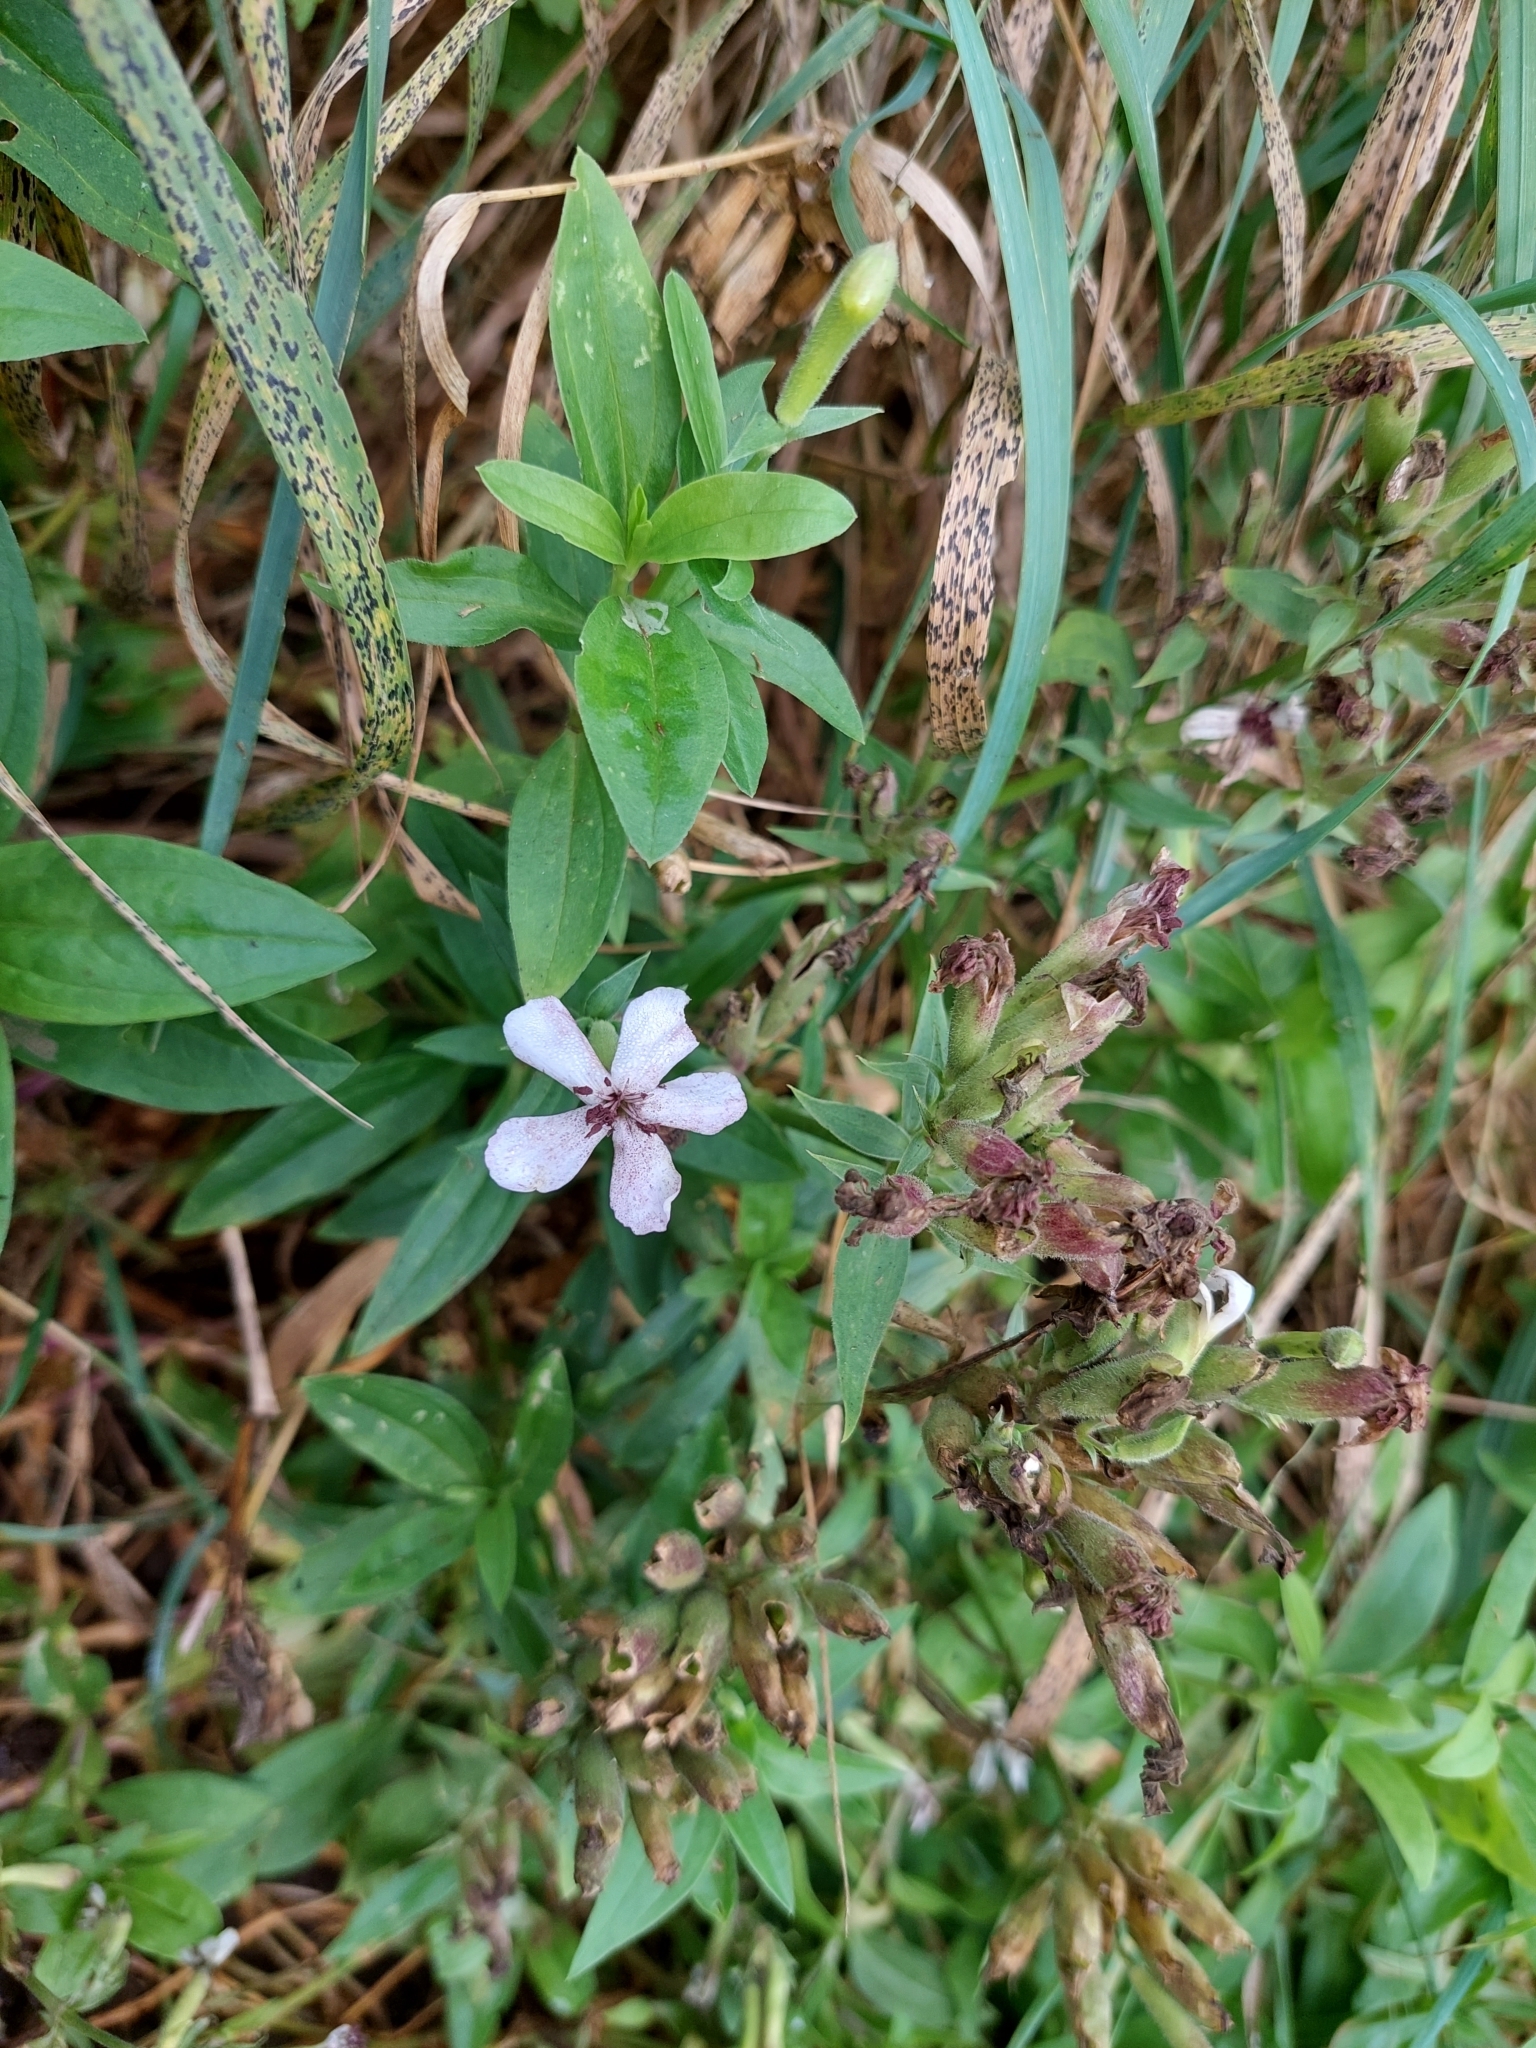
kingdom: Plantae
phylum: Tracheophyta
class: Magnoliopsida
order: Caryophyllales
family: Caryophyllaceae
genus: Saponaria
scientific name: Saponaria officinalis
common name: Soapwort
